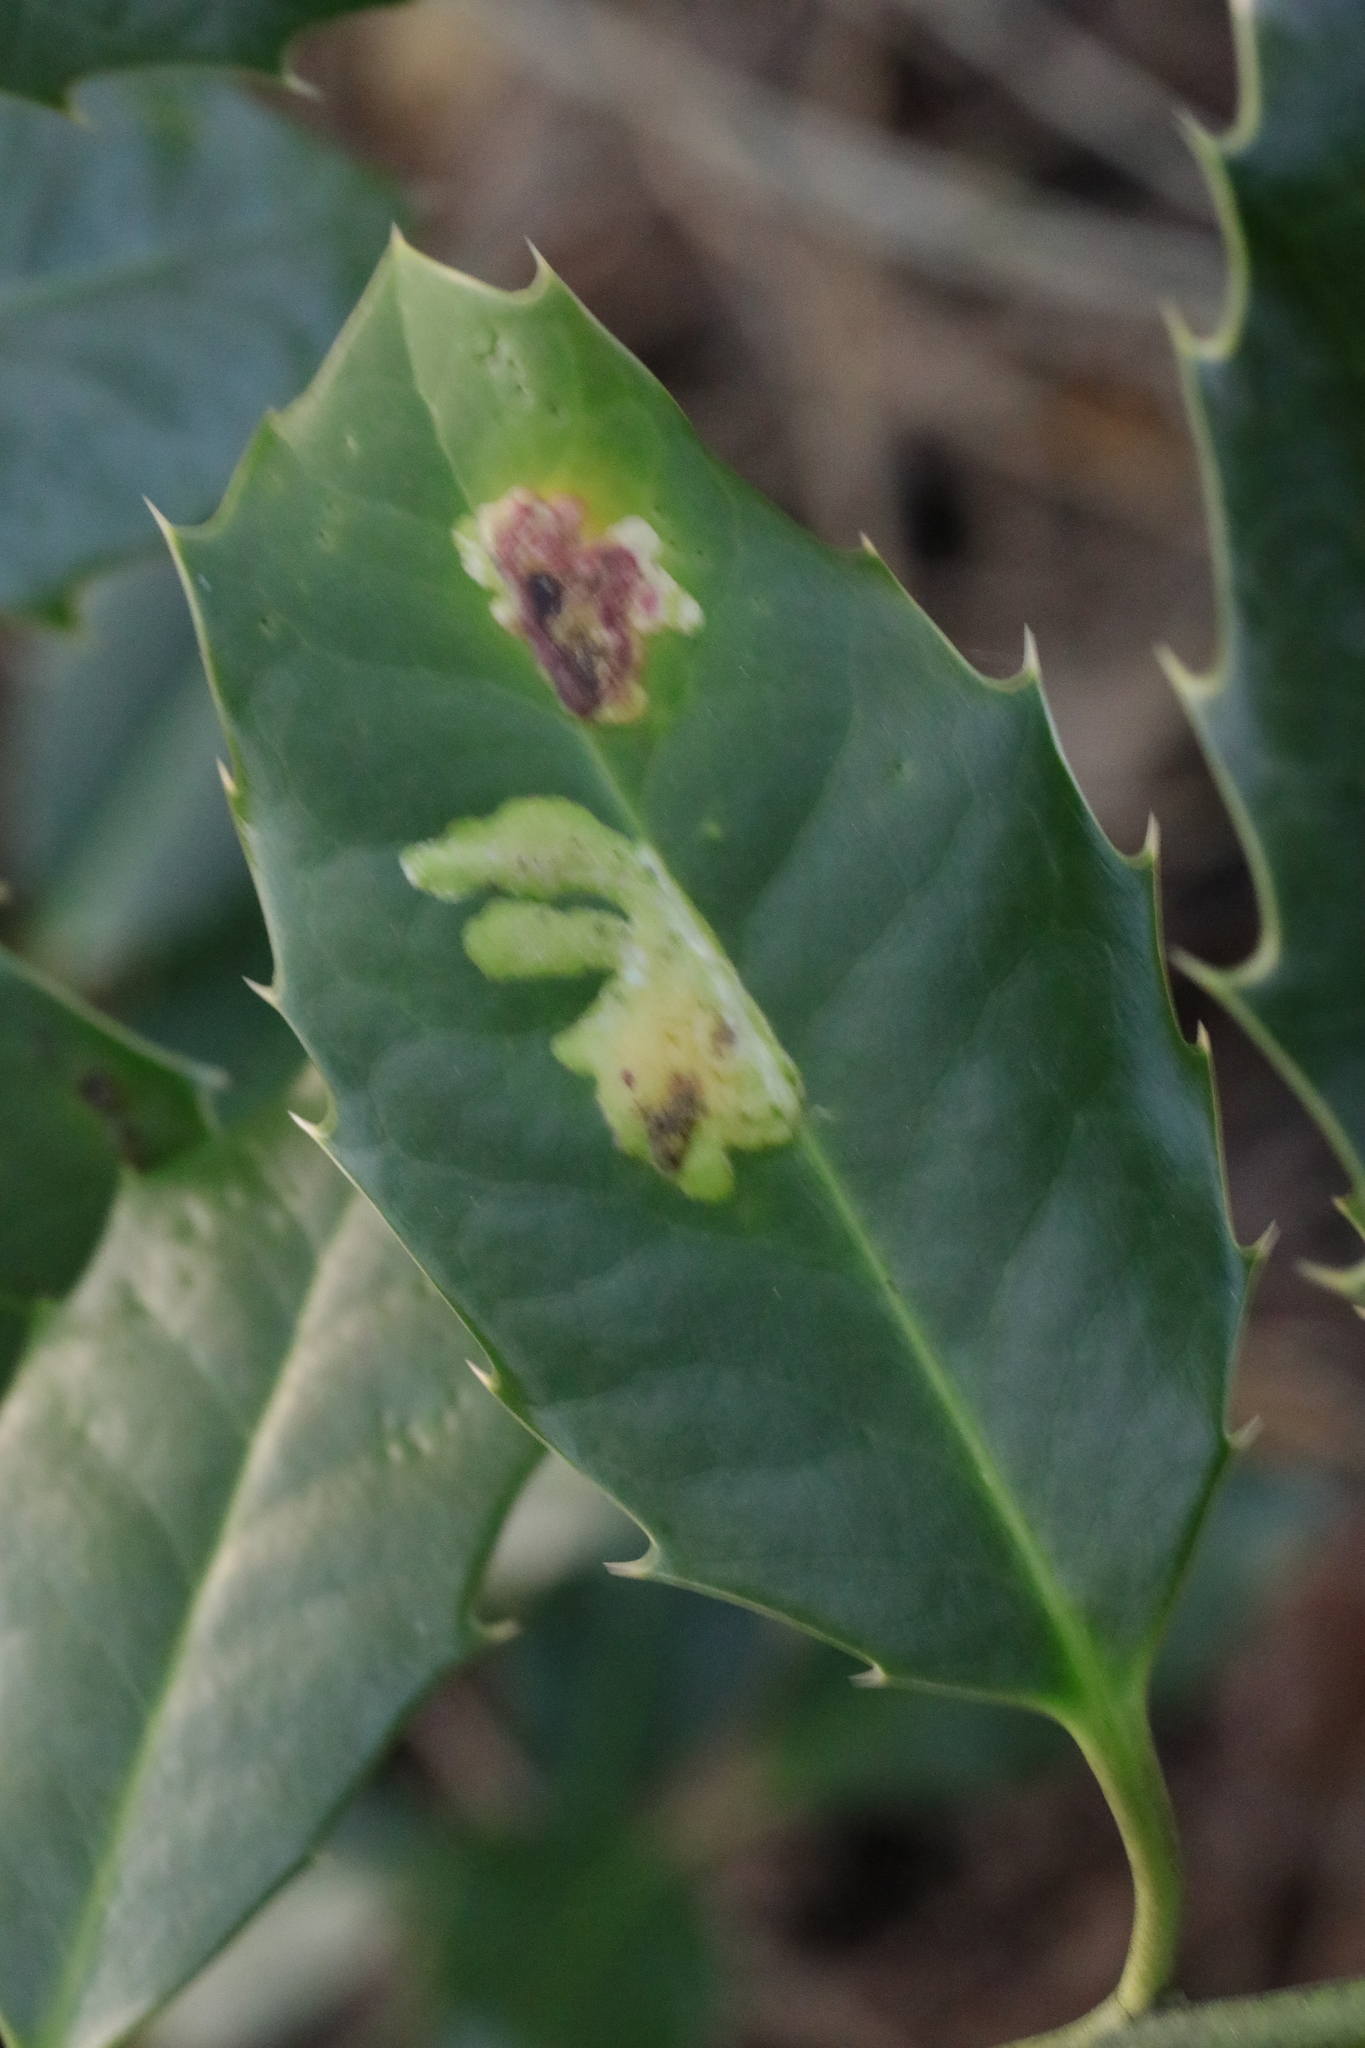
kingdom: Animalia
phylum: Arthropoda
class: Insecta
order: Diptera
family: Agromyzidae
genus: Phytomyza
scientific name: Phytomyza ilicis
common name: Holly leafminer
